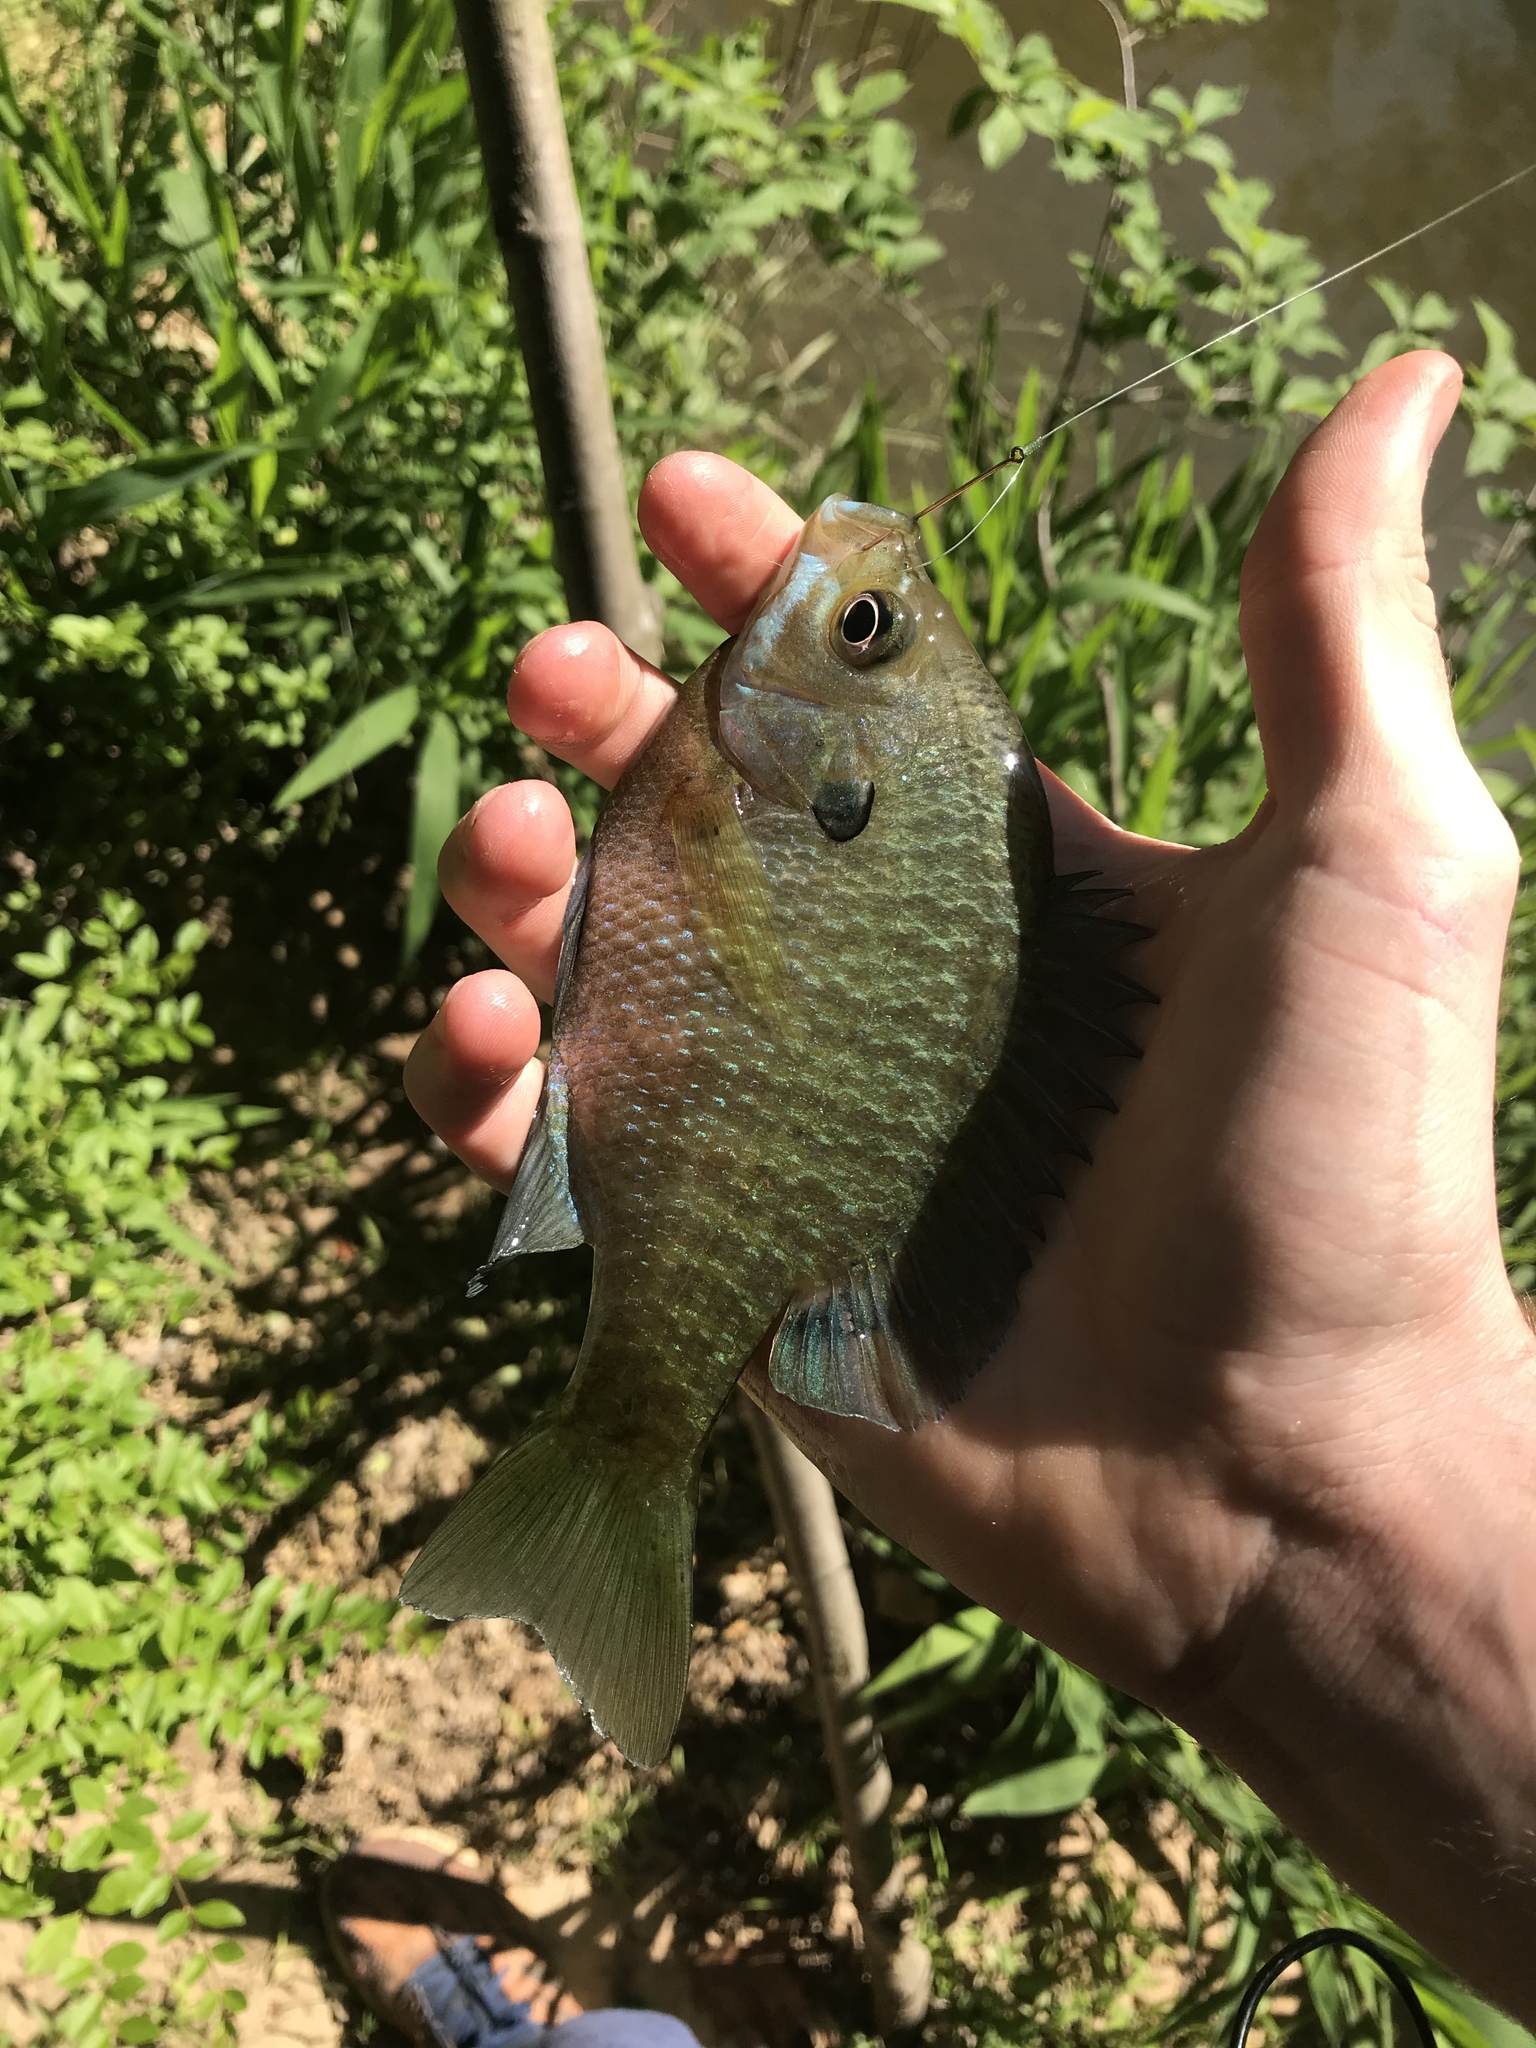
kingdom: Animalia
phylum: Chordata
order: Perciformes
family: Centrarchidae
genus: Lepomis
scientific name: Lepomis macrochirus
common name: Bluegill
